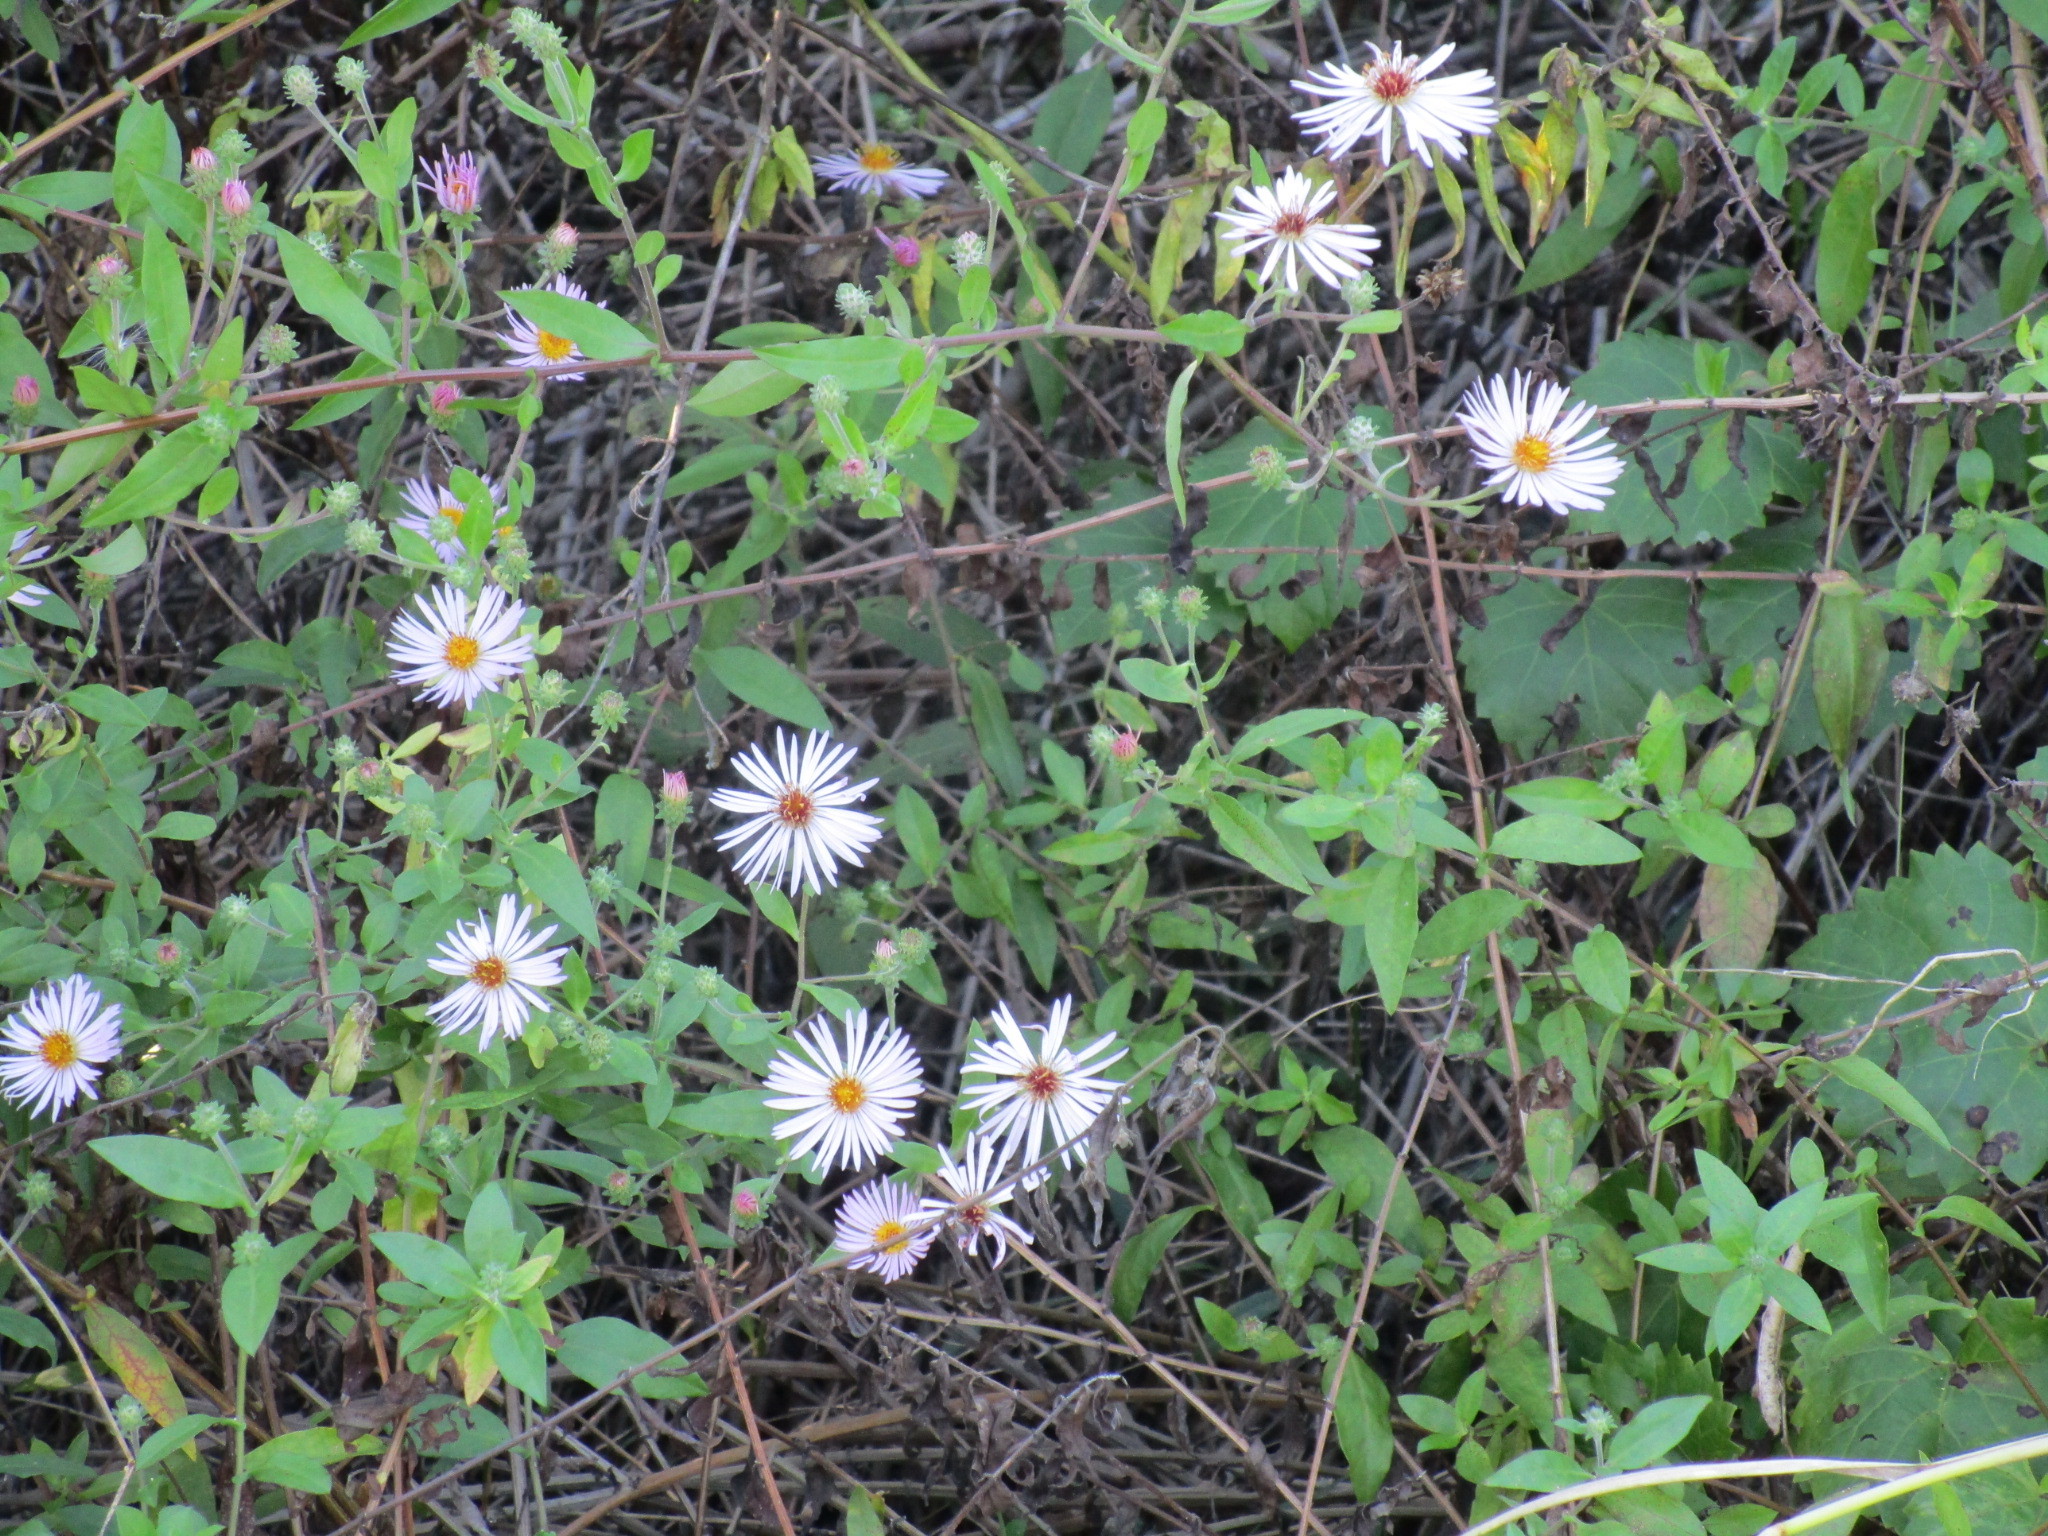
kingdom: Plantae
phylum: Tracheophyta
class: Magnoliopsida
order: Asterales
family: Asteraceae
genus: Ampelaster
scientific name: Ampelaster carolinianus
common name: Climbing aster
